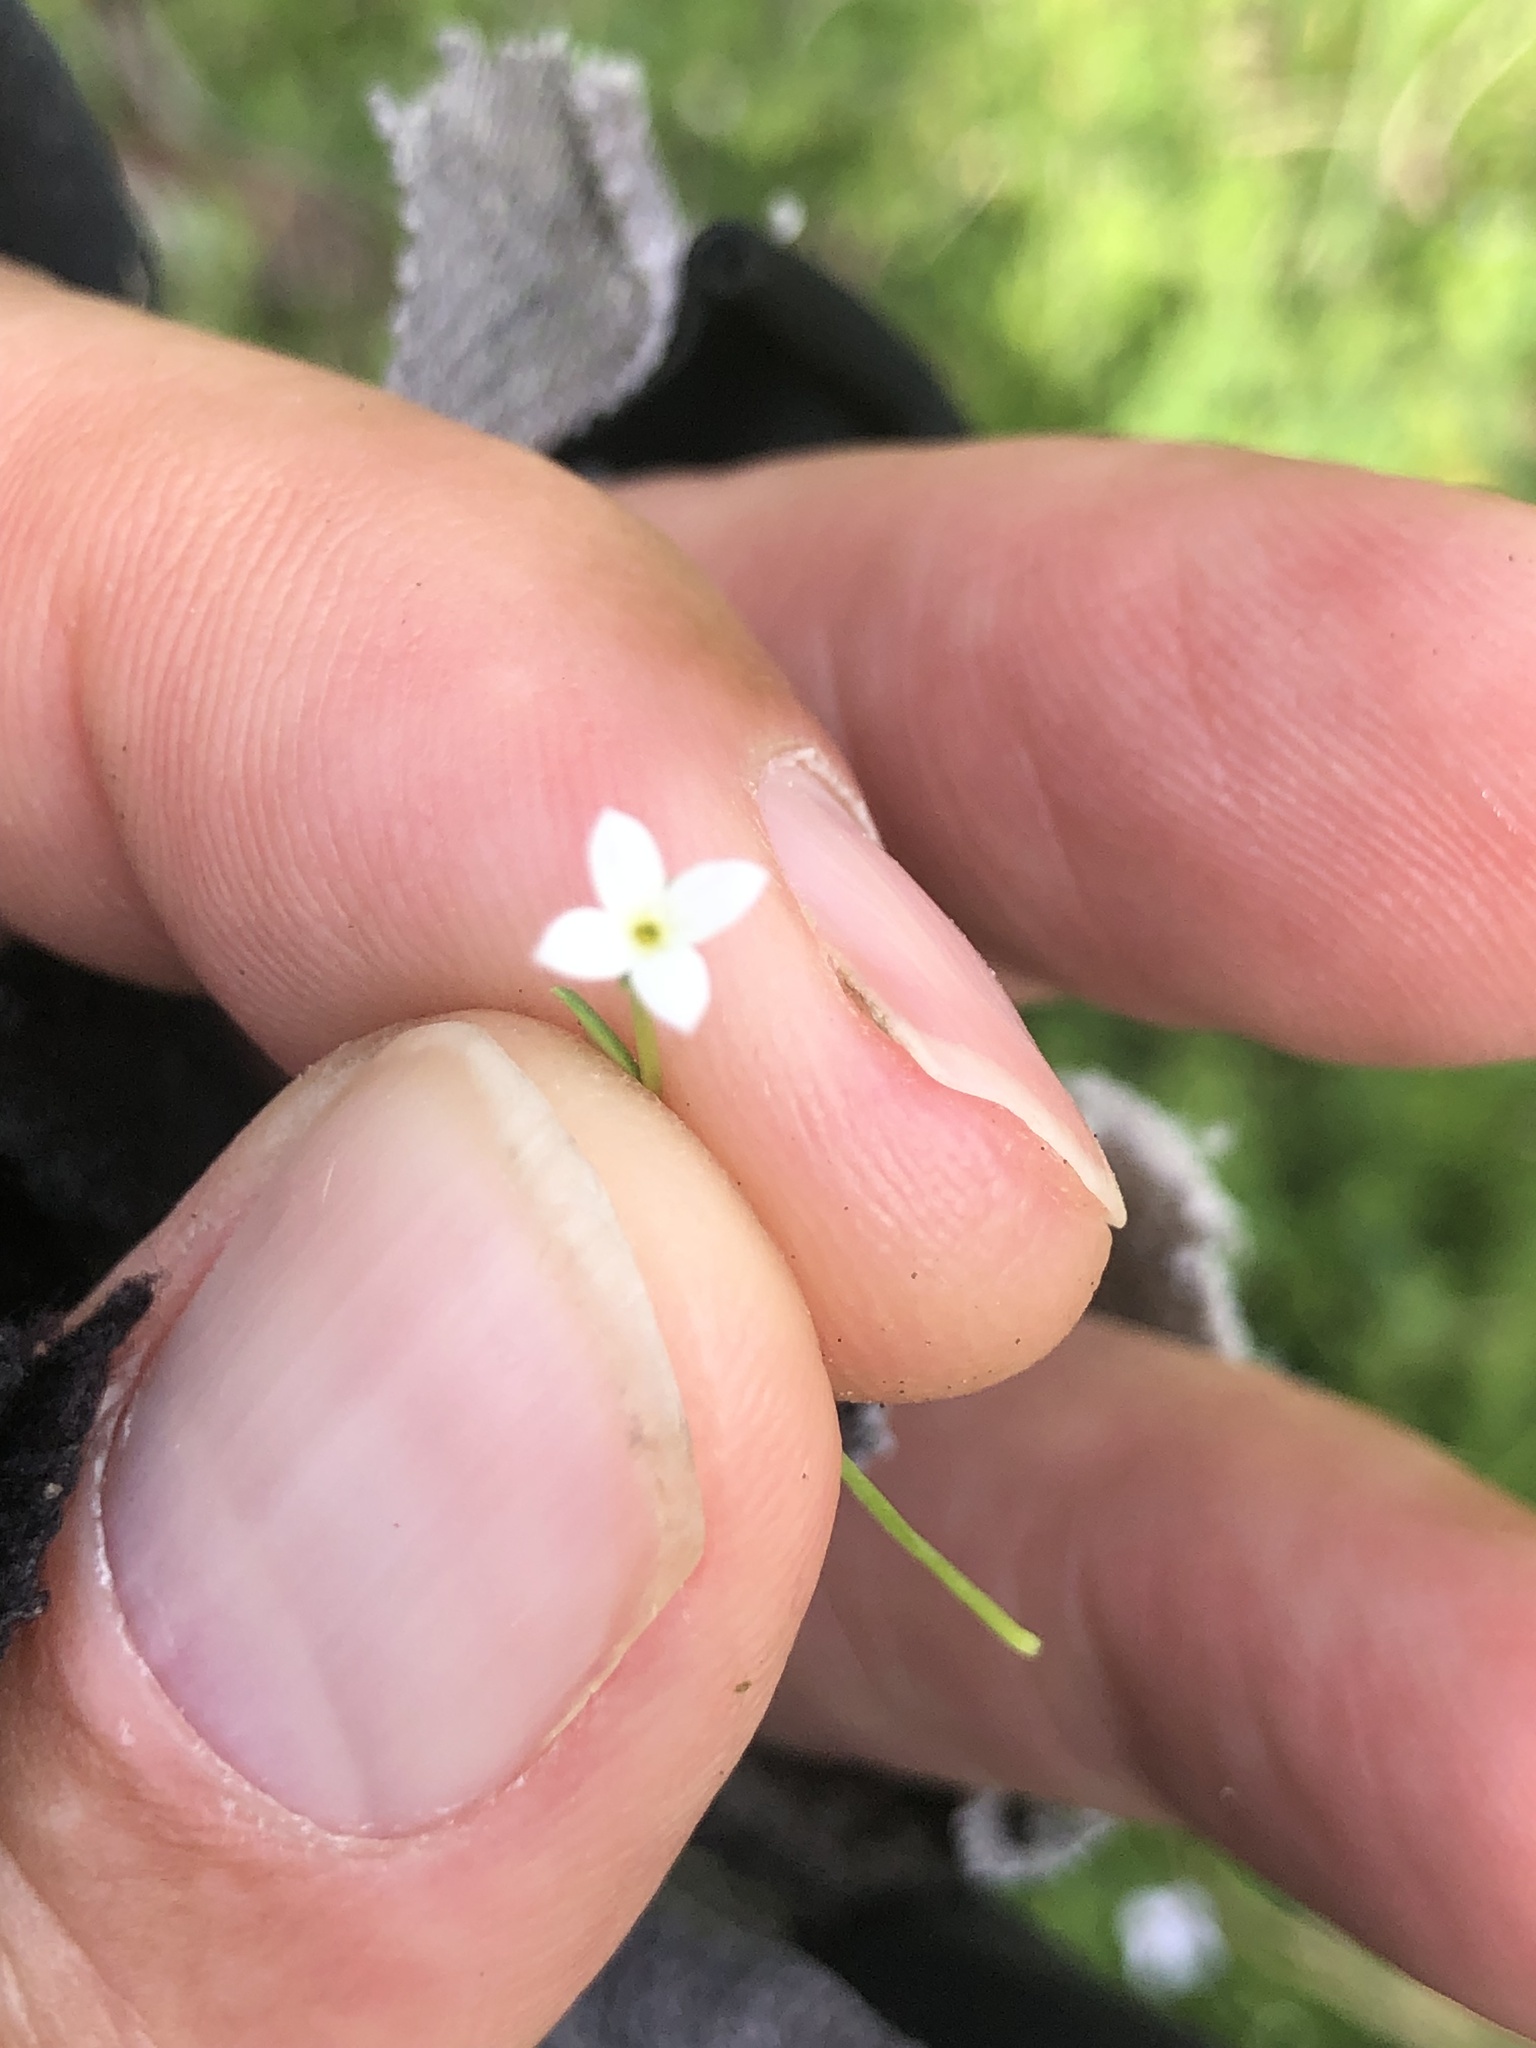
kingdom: Plantae
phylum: Tracheophyta
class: Magnoliopsida
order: Gentianales
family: Rubiaceae
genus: Houstonia
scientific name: Houstonia micrantha
